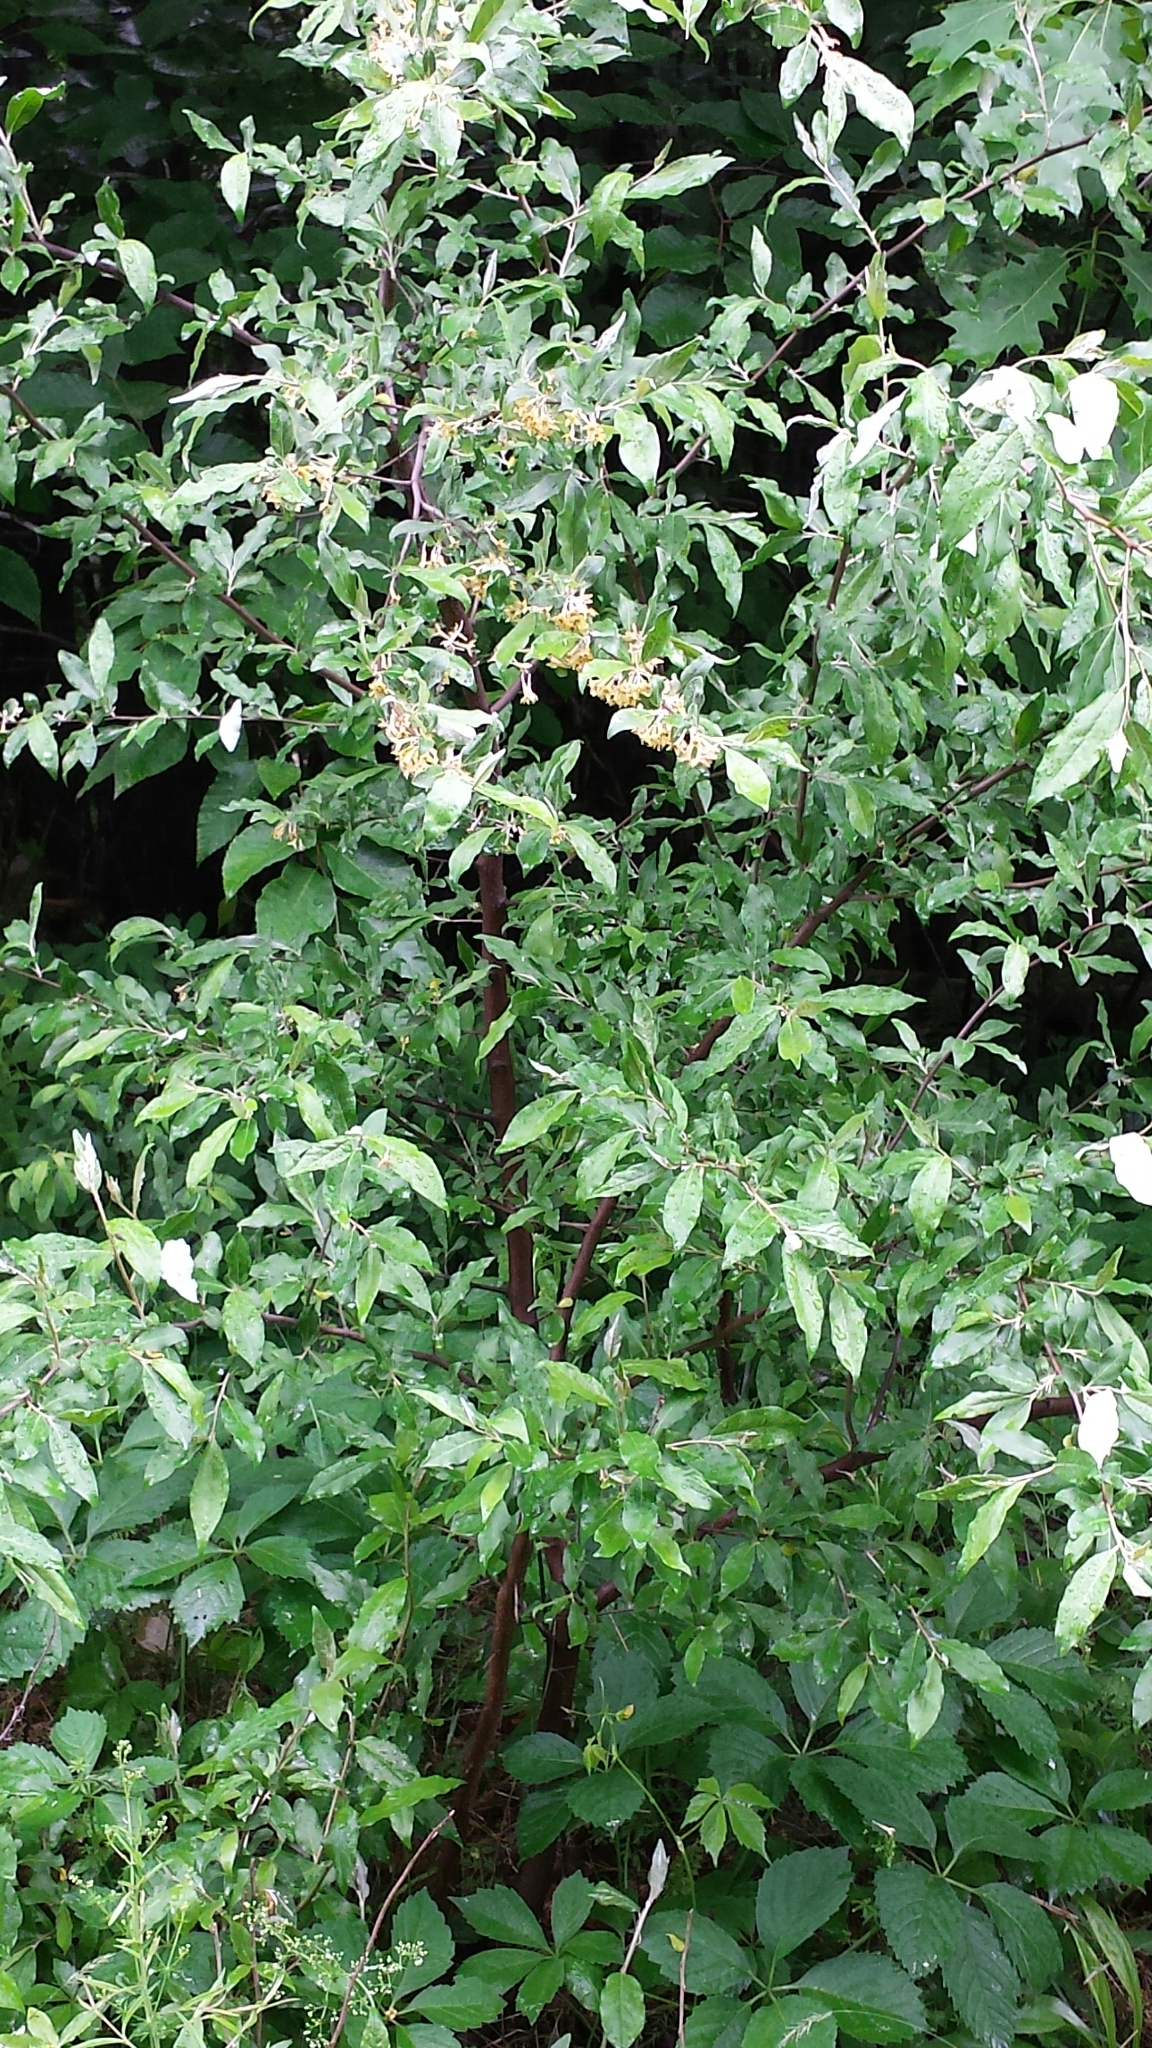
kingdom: Plantae
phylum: Tracheophyta
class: Magnoliopsida
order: Rosales
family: Elaeagnaceae
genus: Elaeagnus
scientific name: Elaeagnus umbellata
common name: Autumn olive
